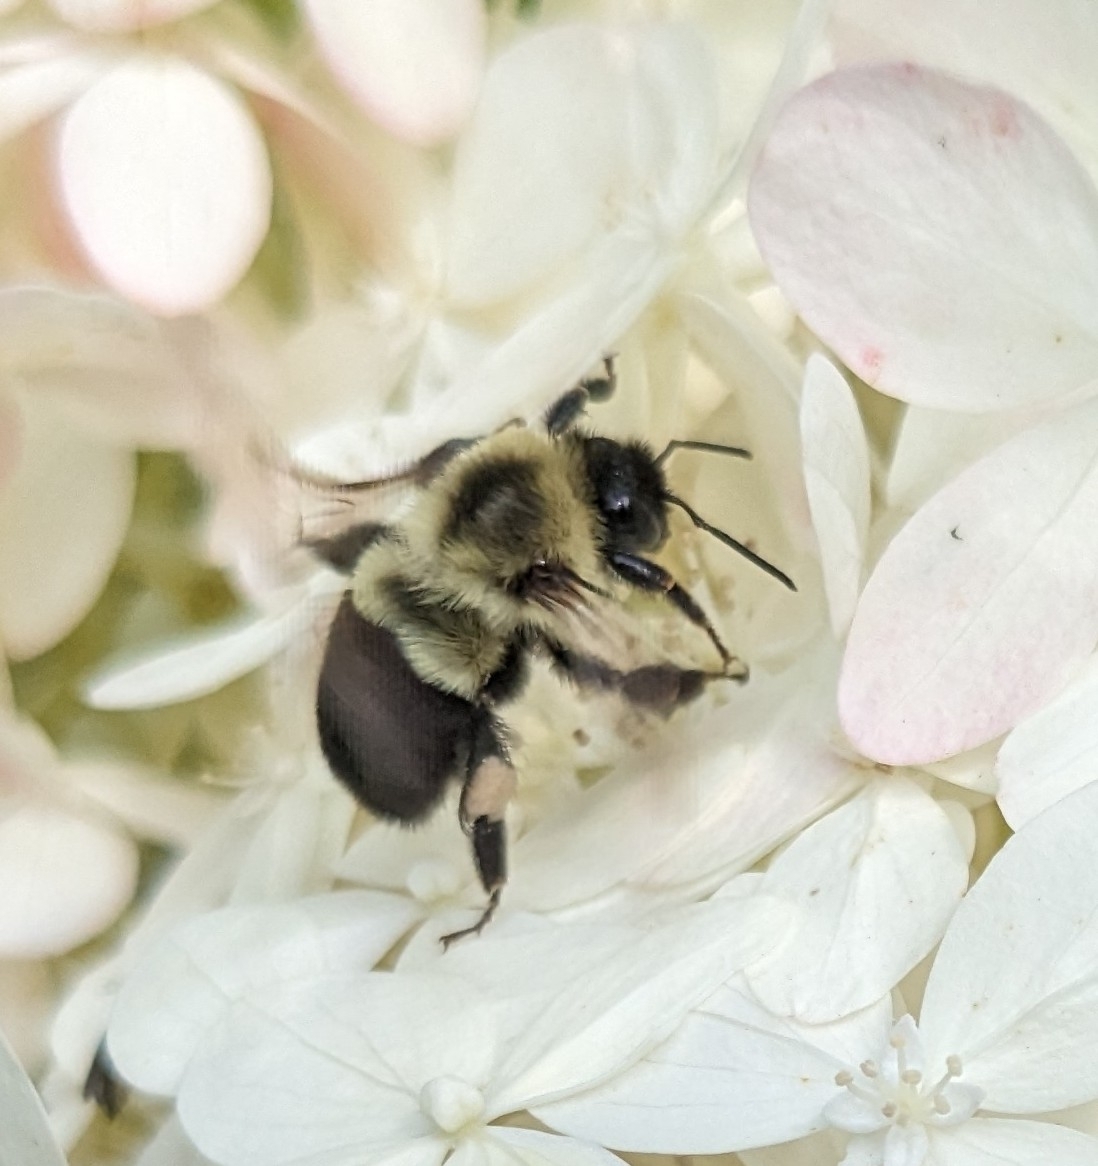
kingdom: Animalia
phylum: Arthropoda
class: Insecta
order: Hymenoptera
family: Apidae
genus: Bombus
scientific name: Bombus impatiens
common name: Common eastern bumble bee
